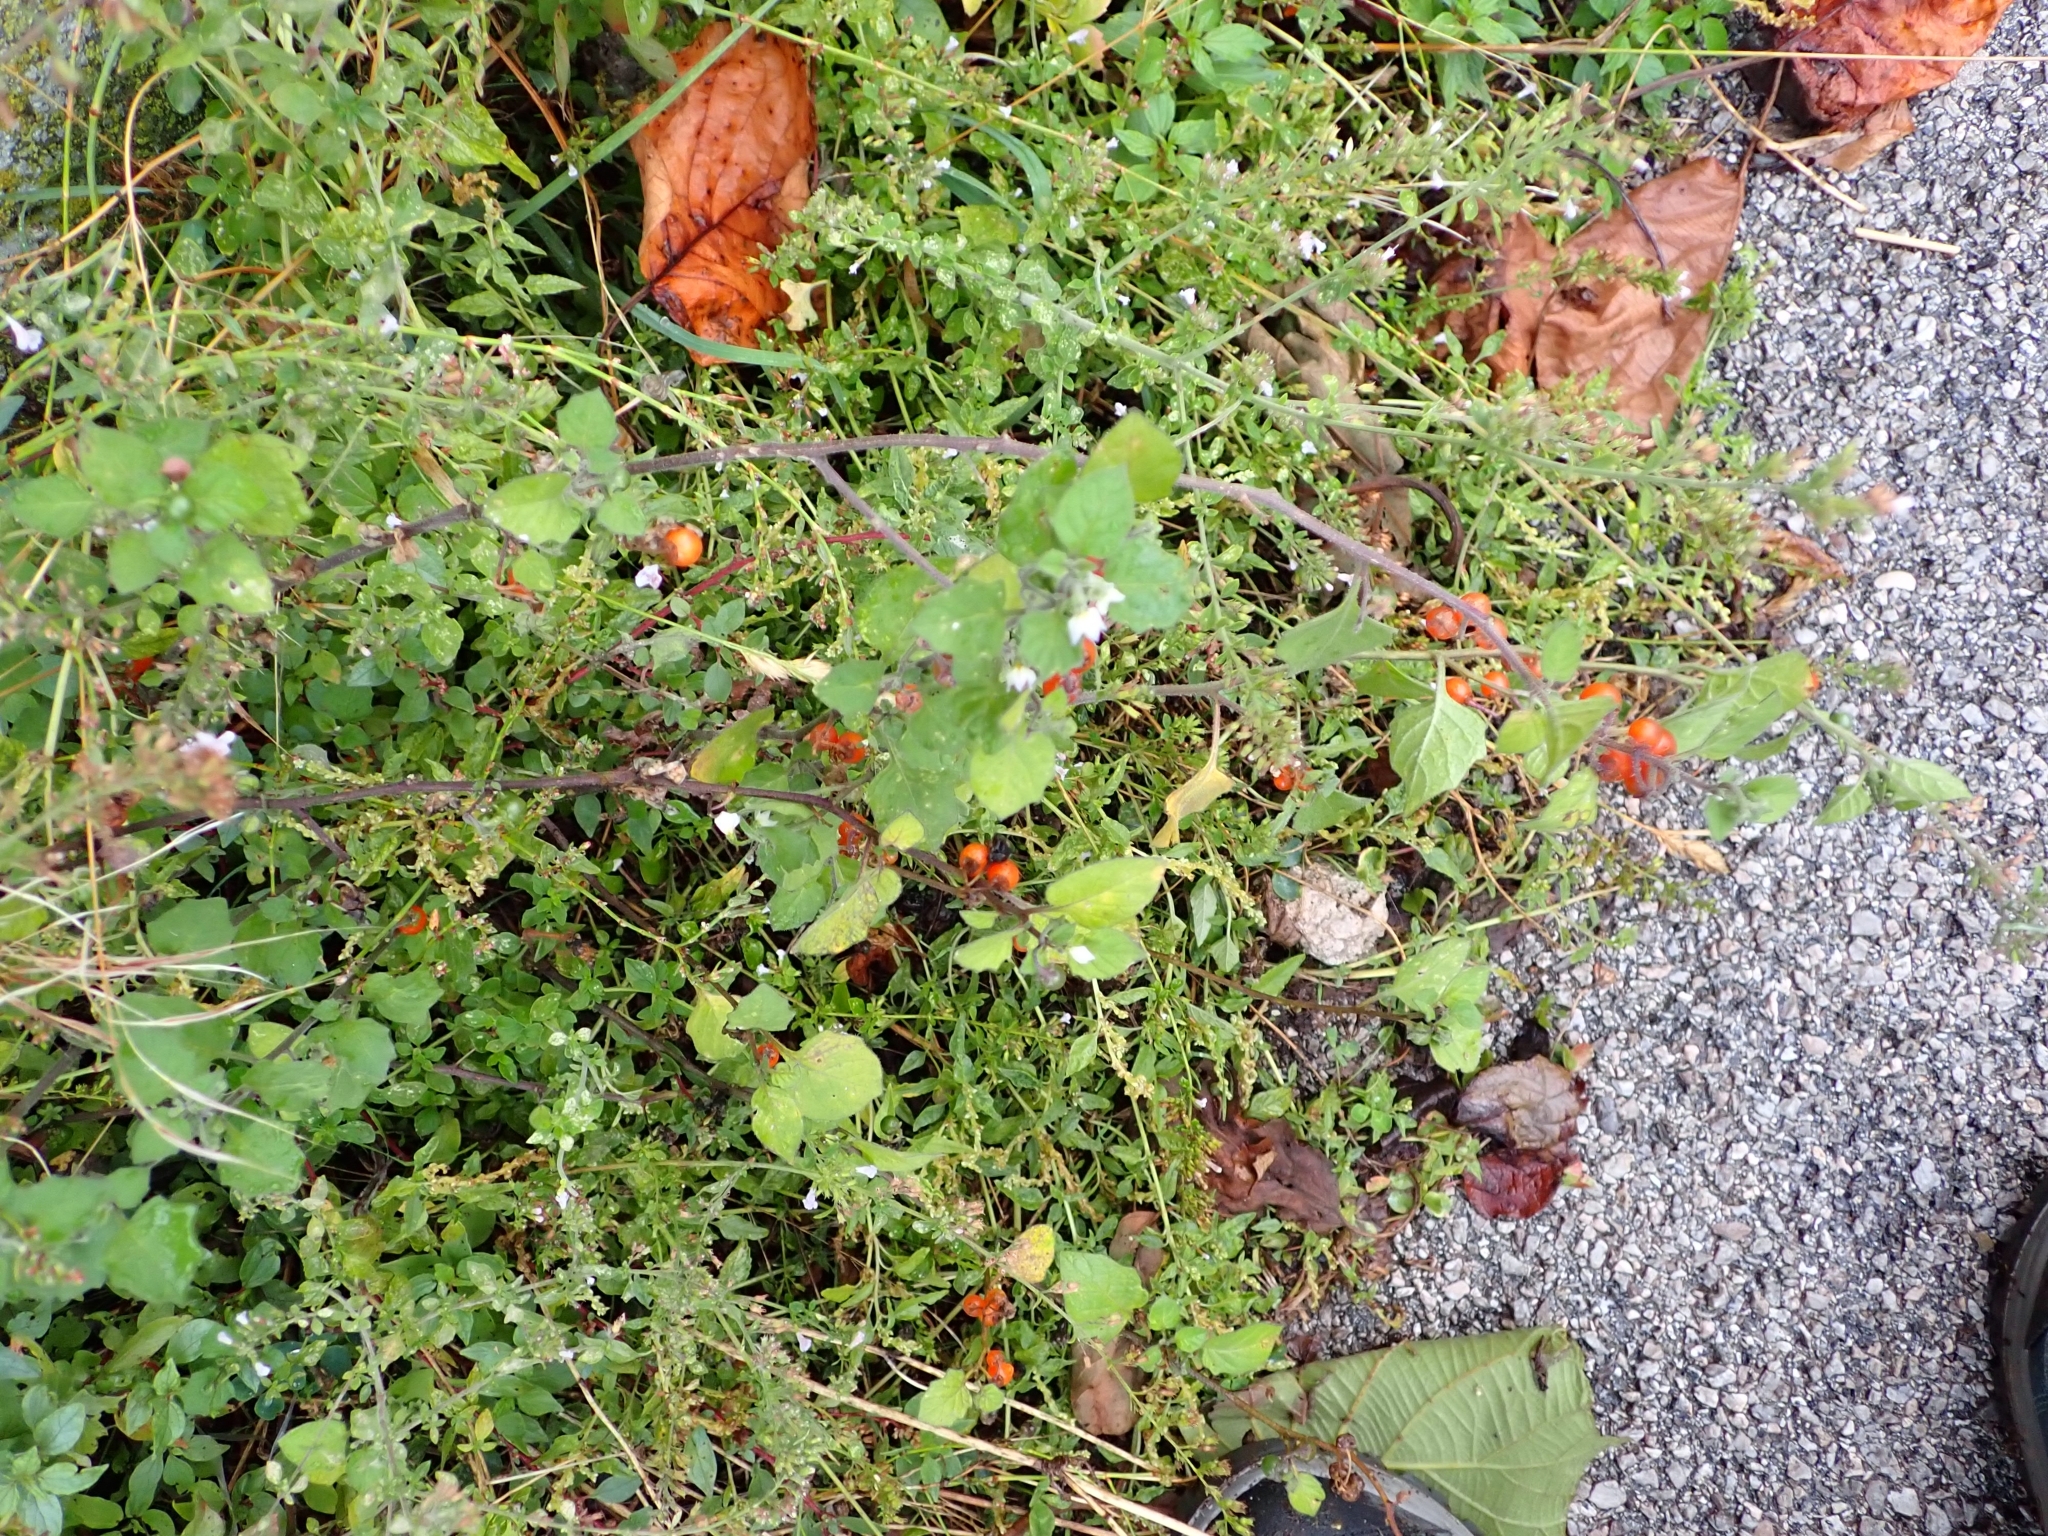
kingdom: Plantae
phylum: Tracheophyta
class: Magnoliopsida
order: Solanales
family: Solanaceae
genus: Solanum
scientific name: Solanum villosum
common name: Red nightshade
